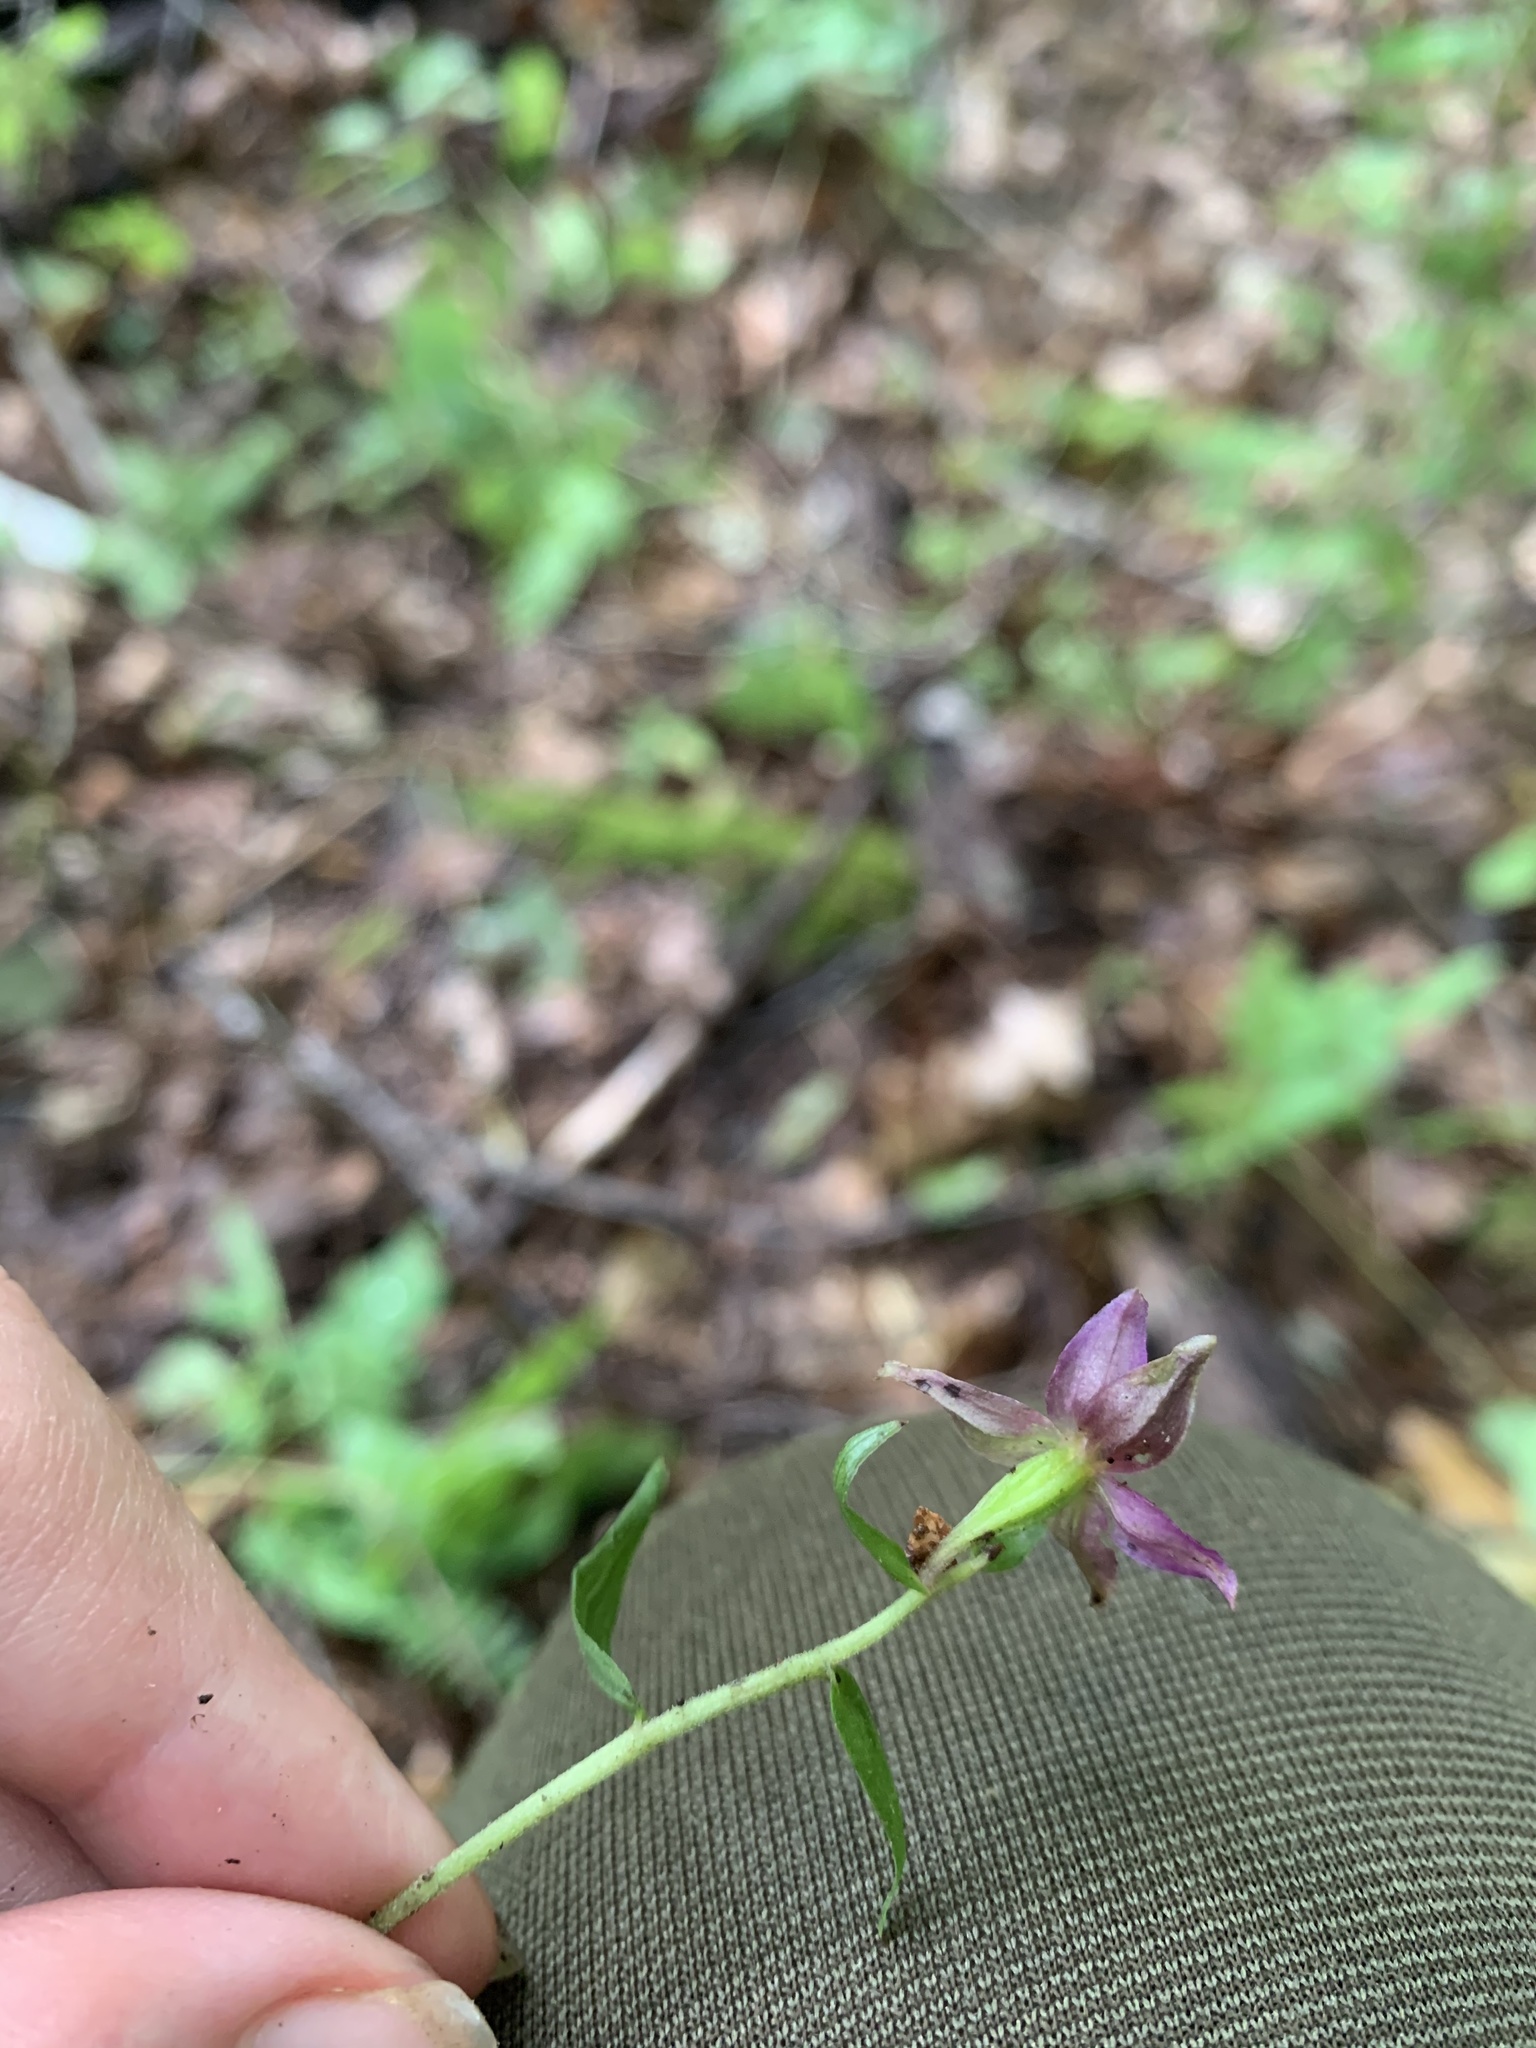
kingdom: Plantae
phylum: Tracheophyta
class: Liliopsida
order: Asparagales
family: Orchidaceae
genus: Epipactis
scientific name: Epipactis helleborine
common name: Broad-leaved helleborine
